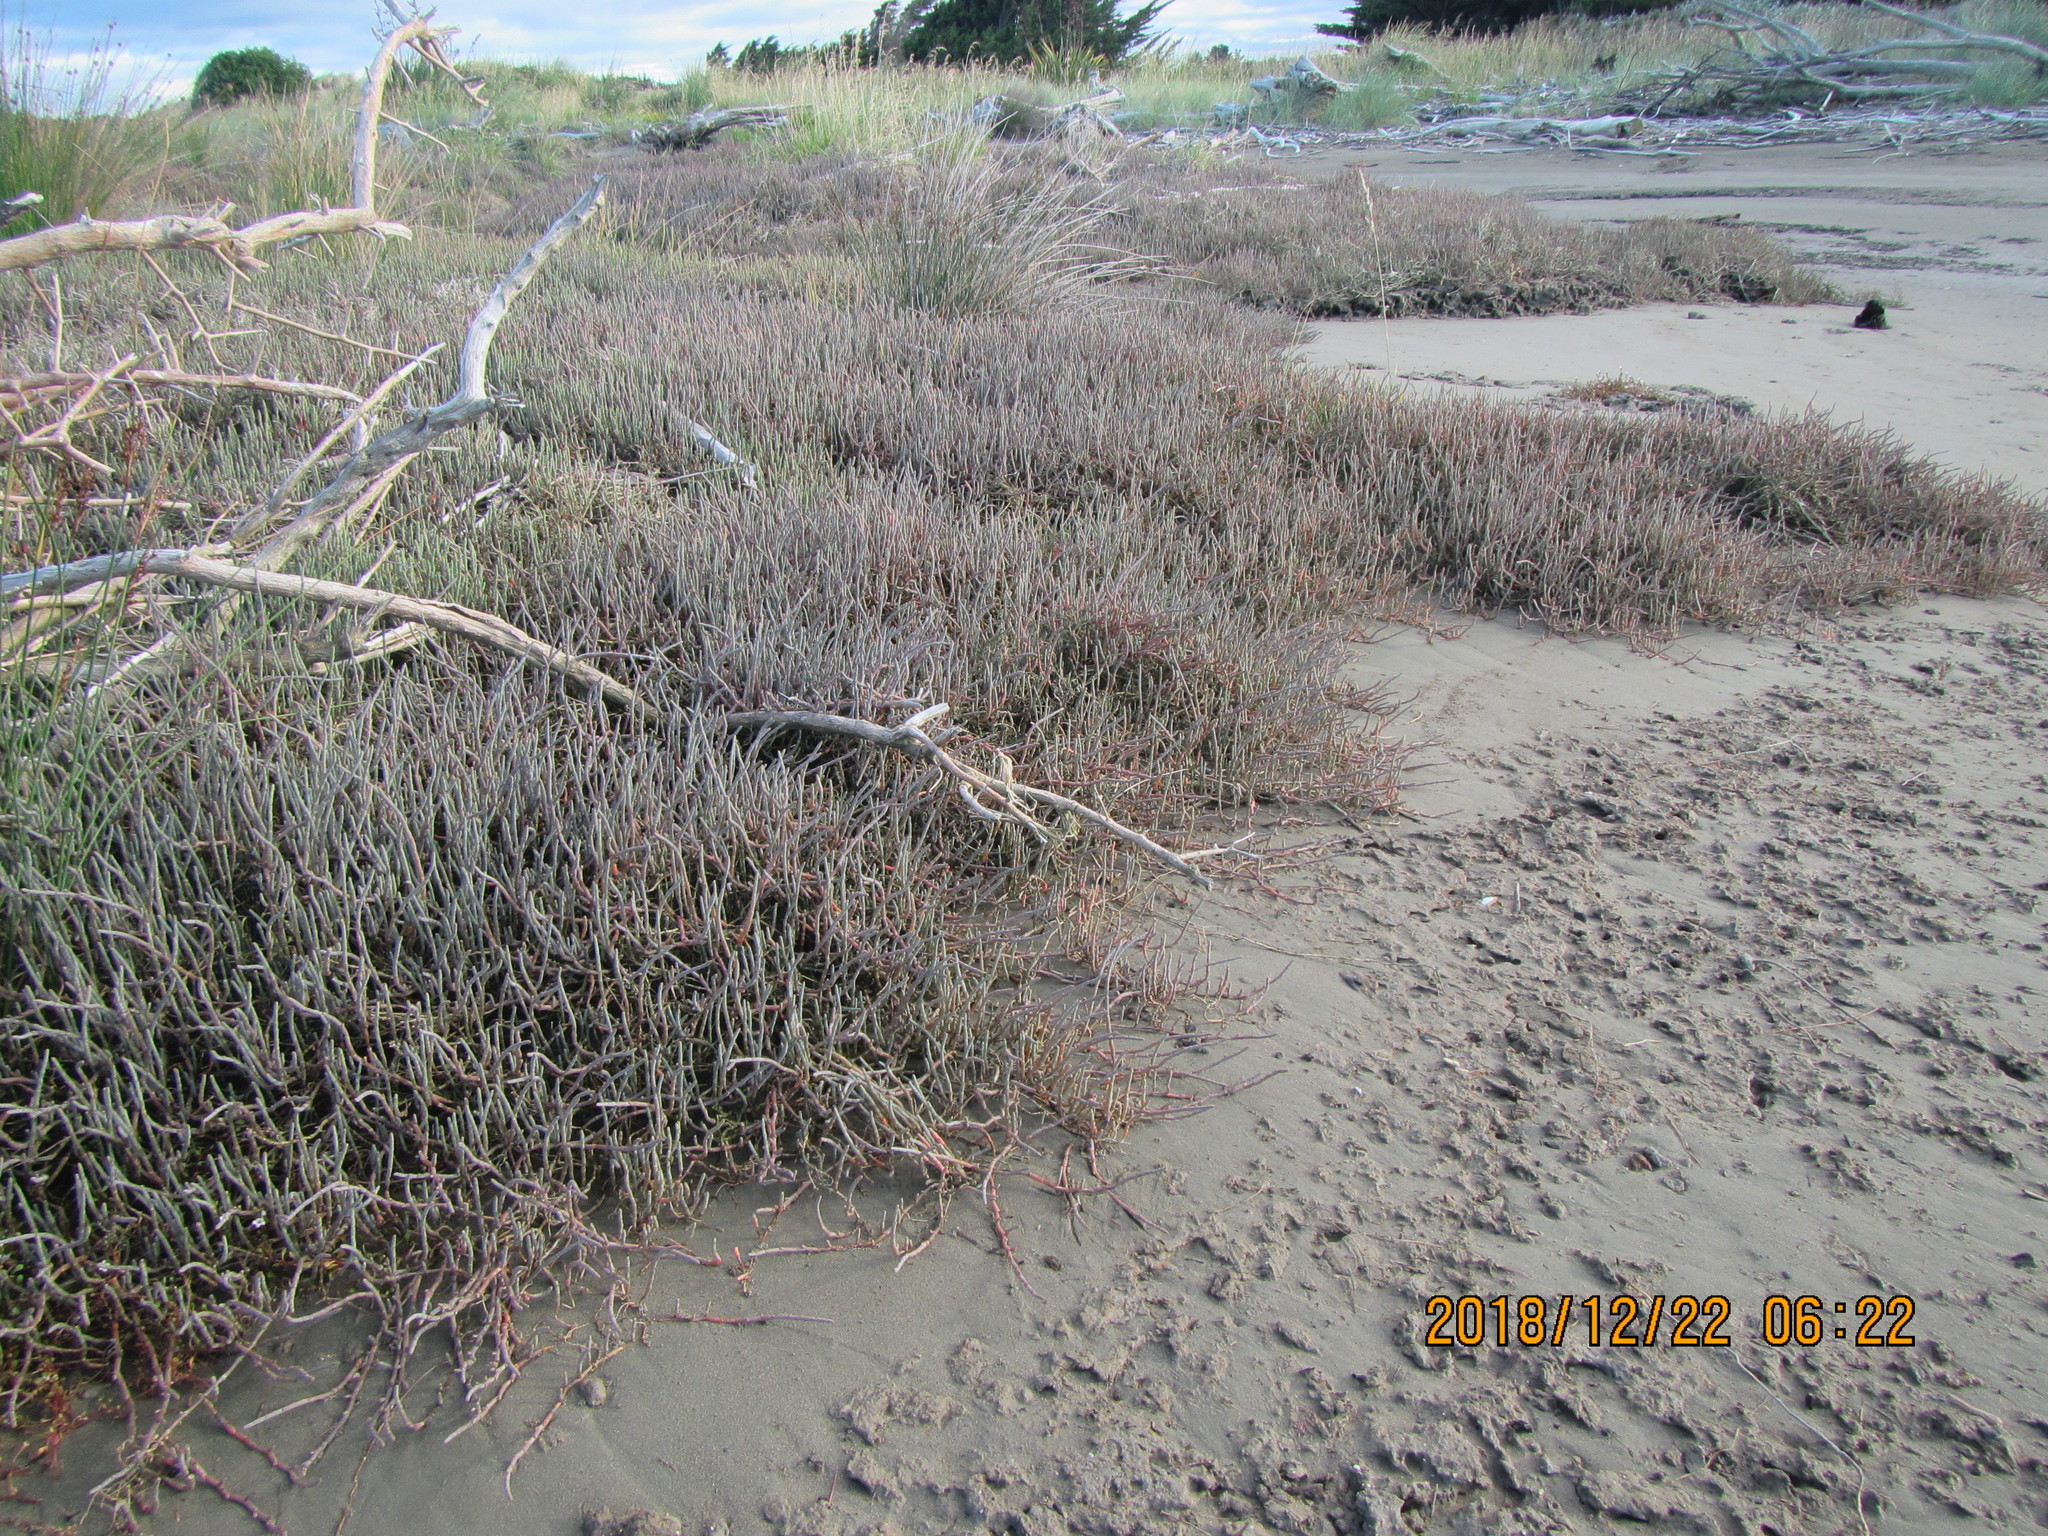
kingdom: Plantae
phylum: Tracheophyta
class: Magnoliopsida
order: Caryophyllales
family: Amaranthaceae
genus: Salicornia
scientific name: Salicornia quinqueflora
